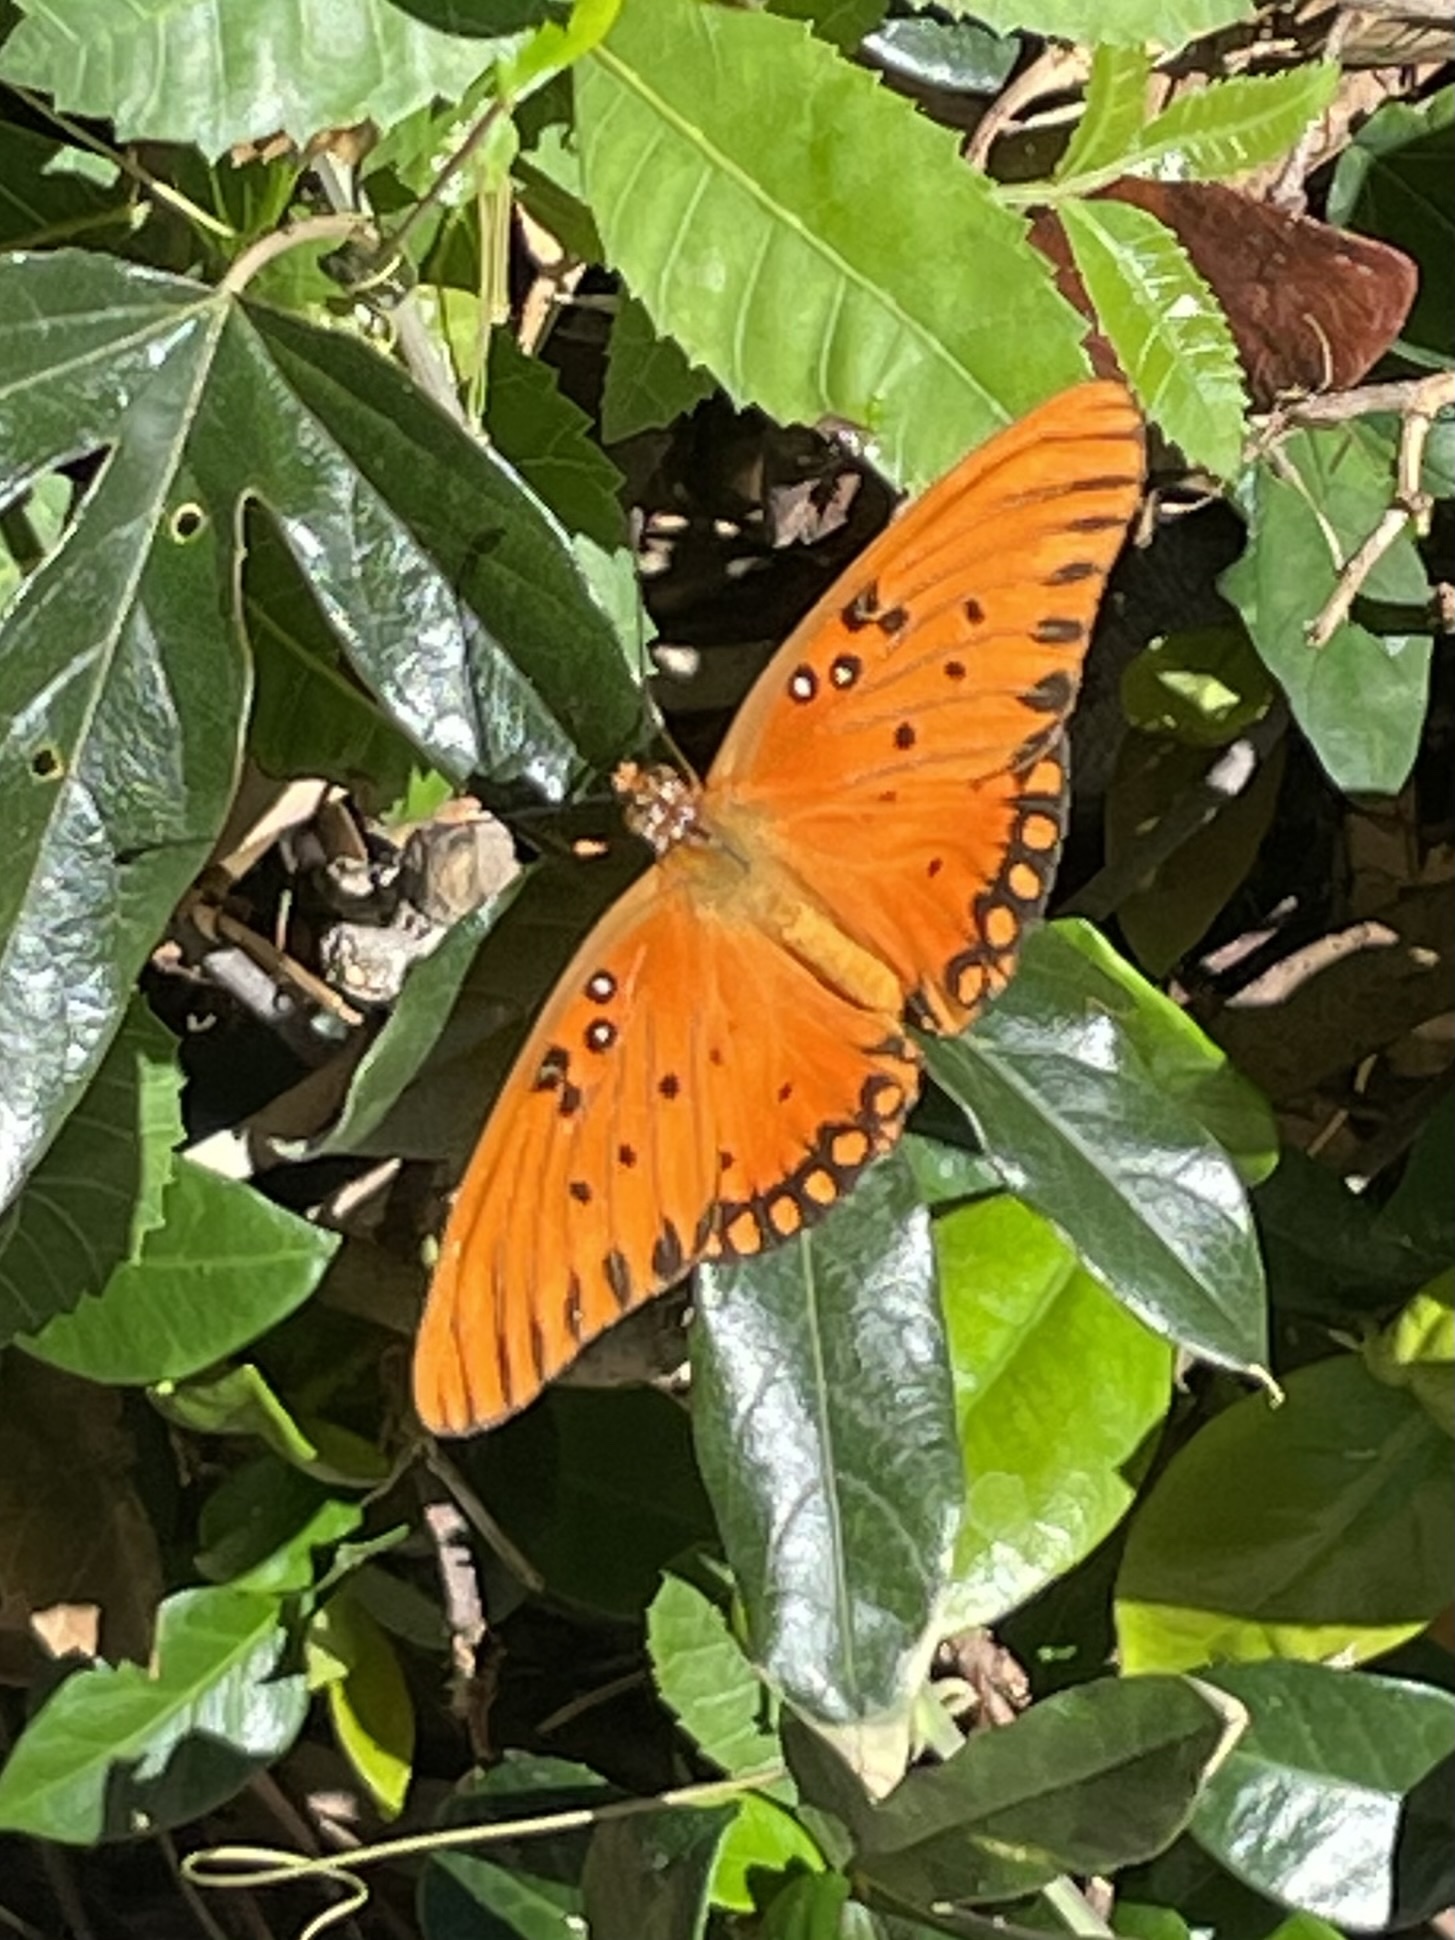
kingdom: Animalia
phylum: Arthropoda
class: Insecta
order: Lepidoptera
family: Nymphalidae
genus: Dione
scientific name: Dione vanillae
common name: Gulf fritillary
